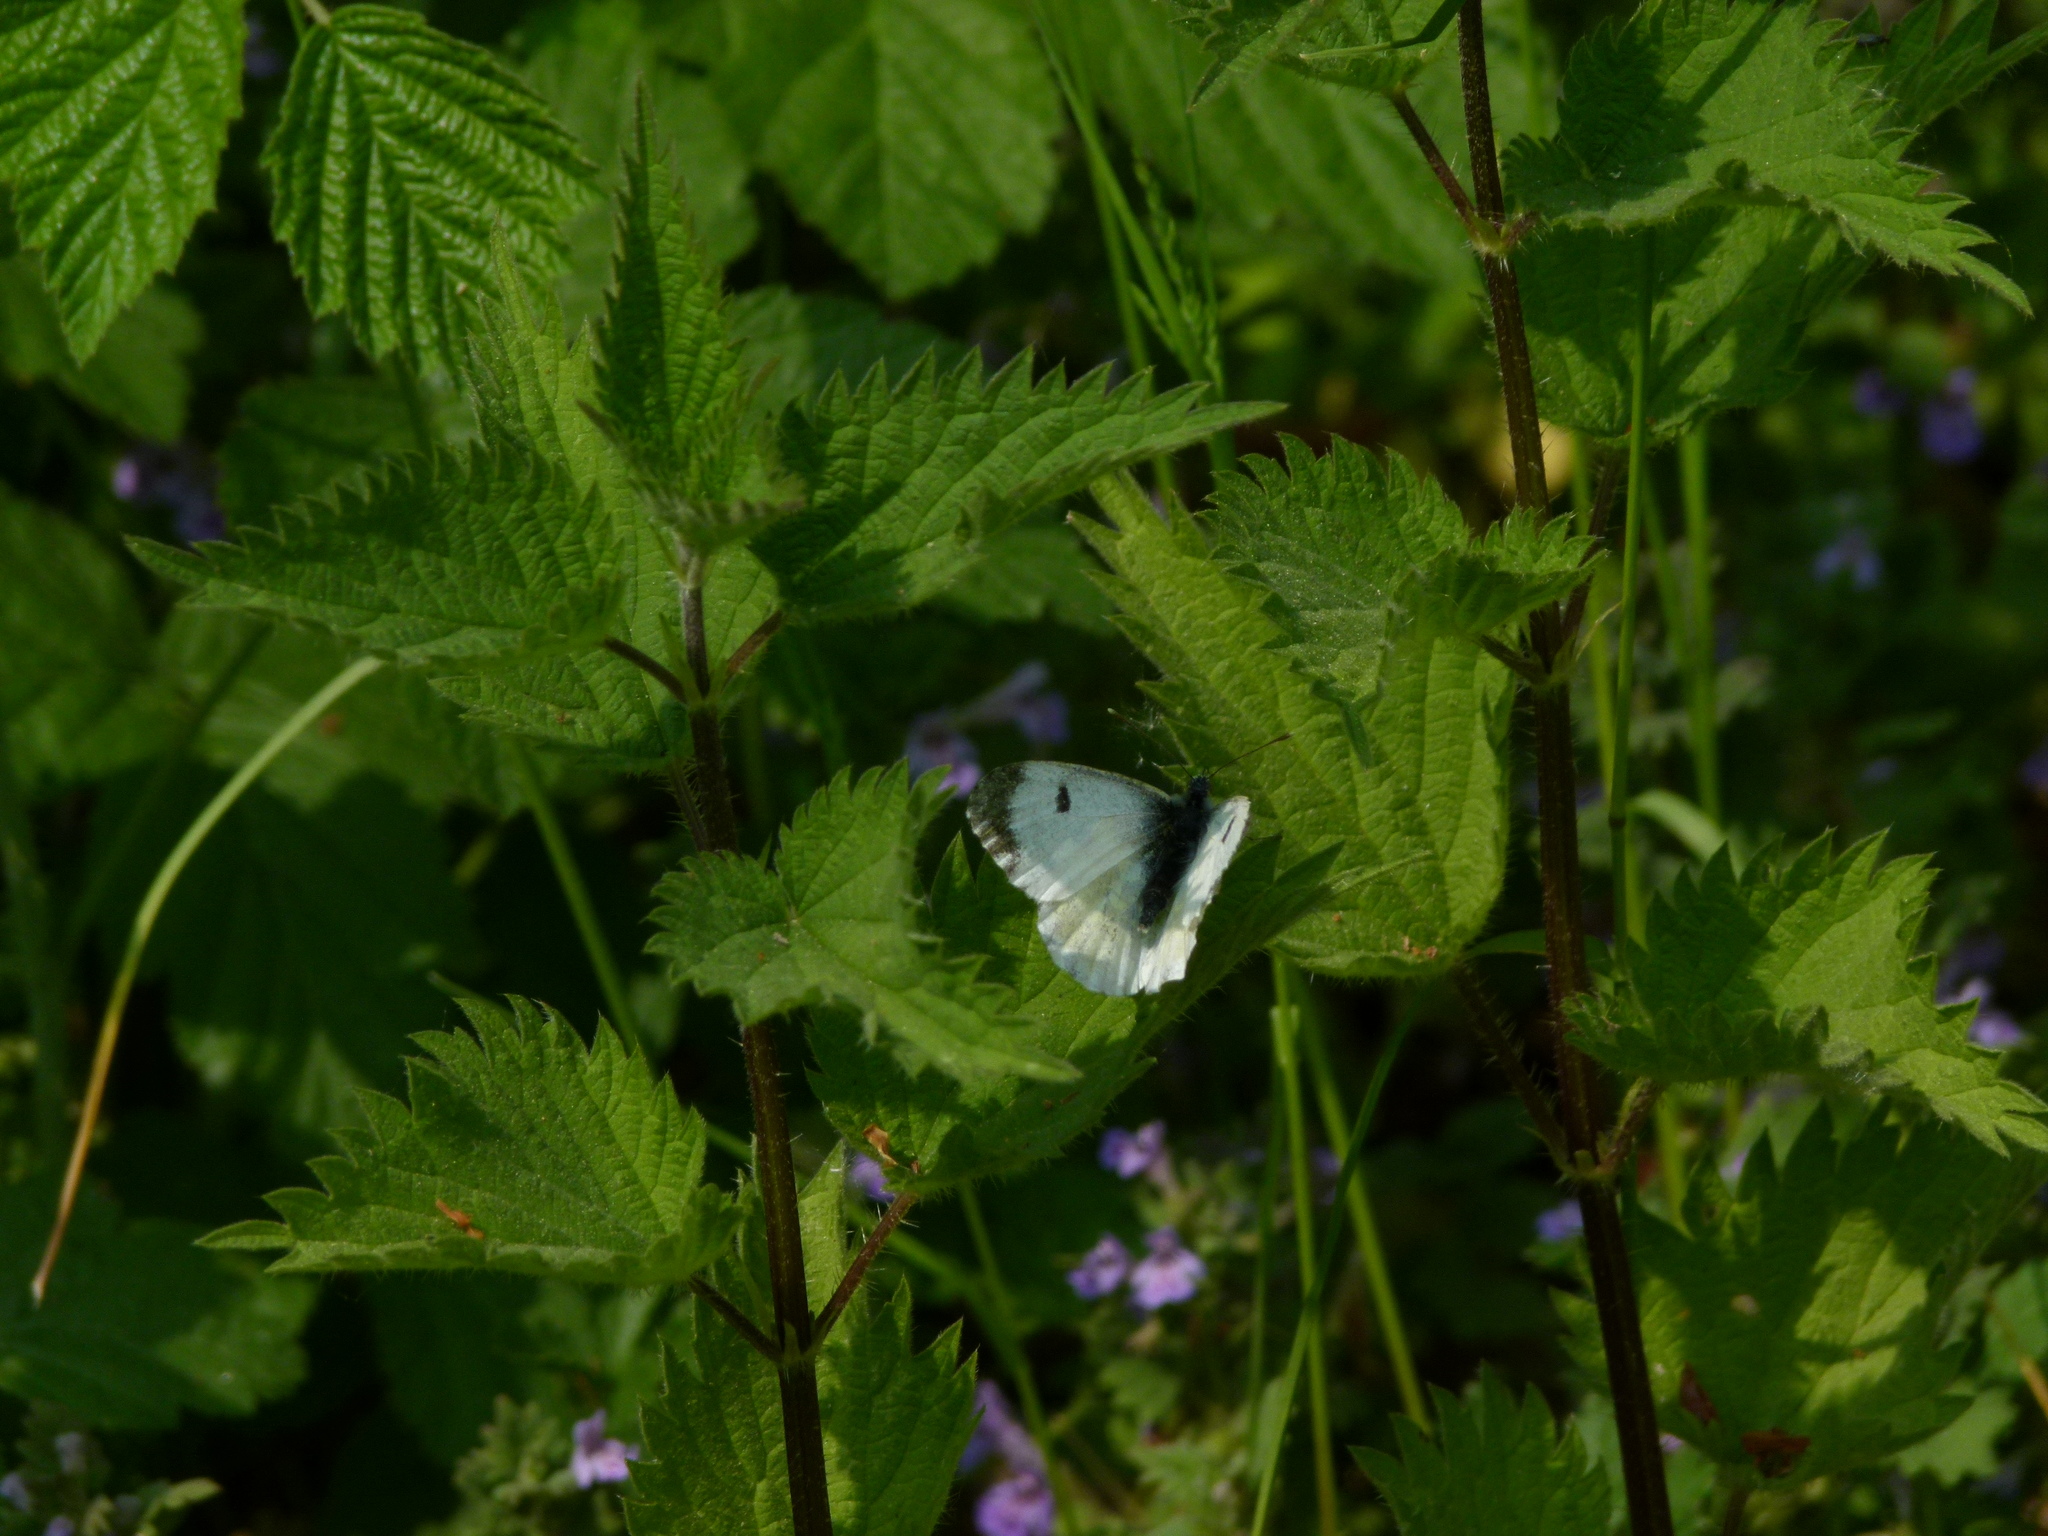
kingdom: Animalia
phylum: Arthropoda
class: Insecta
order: Lepidoptera
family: Pieridae
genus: Anthocharis
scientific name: Anthocharis cardamines
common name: Orange-tip
